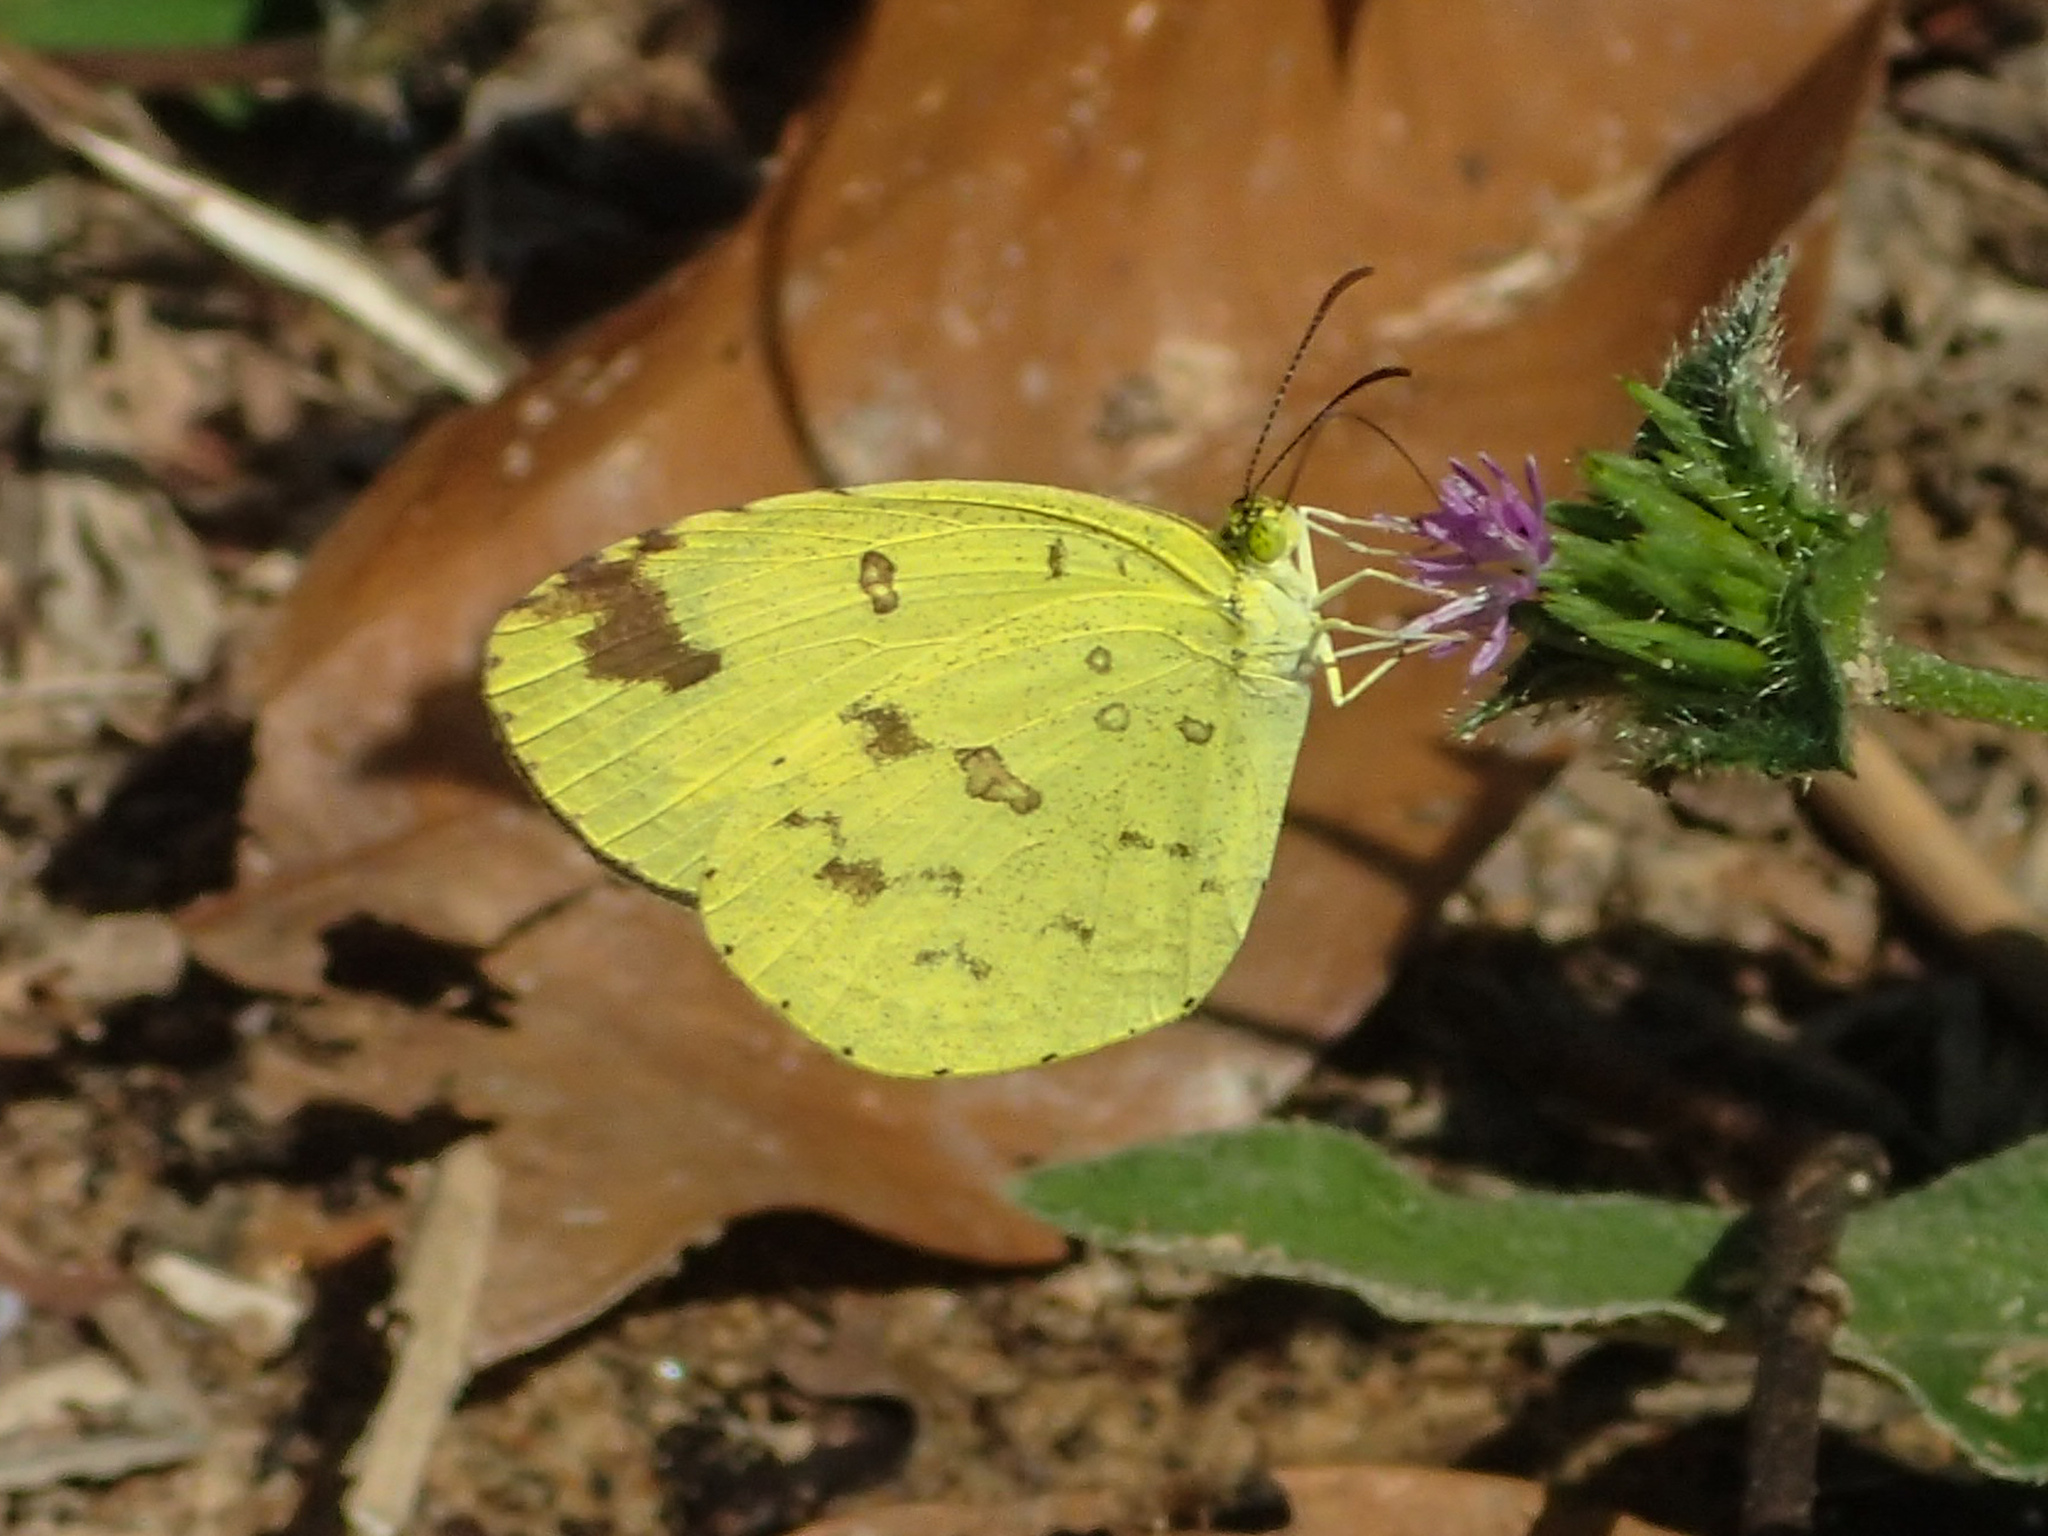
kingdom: Animalia
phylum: Arthropoda
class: Insecta
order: Lepidoptera
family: Pieridae
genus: Eurema
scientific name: Eurema hecabe
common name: Pale grass yellow
